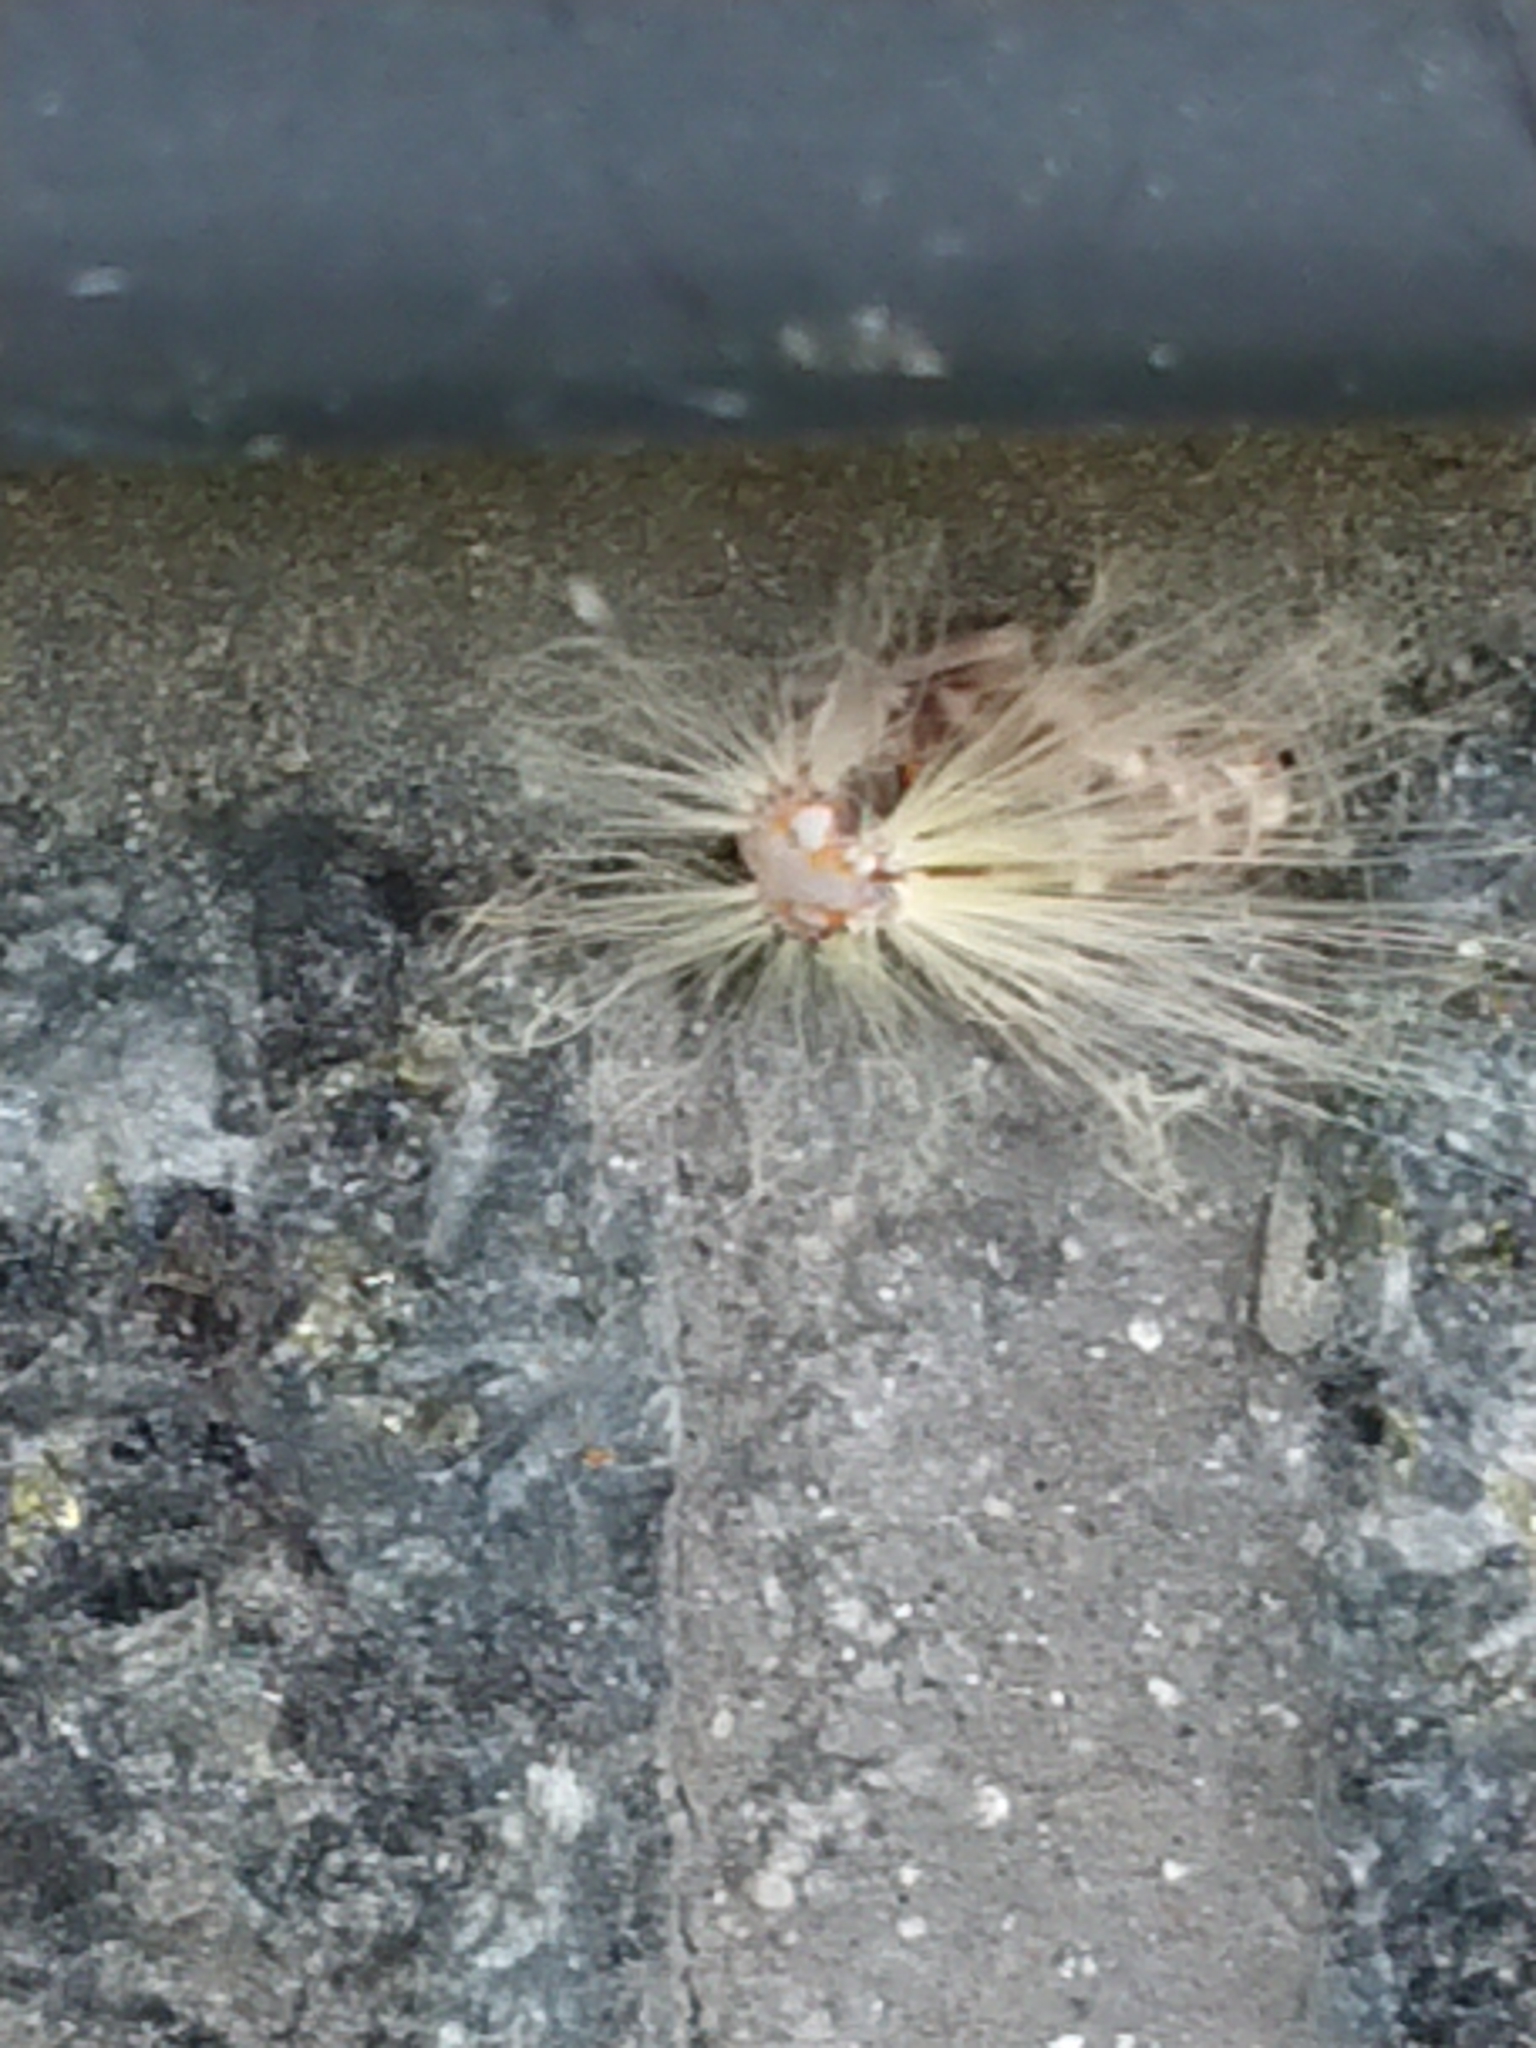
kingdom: Animalia
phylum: Arthropoda
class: Insecta
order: Hemiptera
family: Ricaniidae
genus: Scolypopa
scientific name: Scolypopa australis
